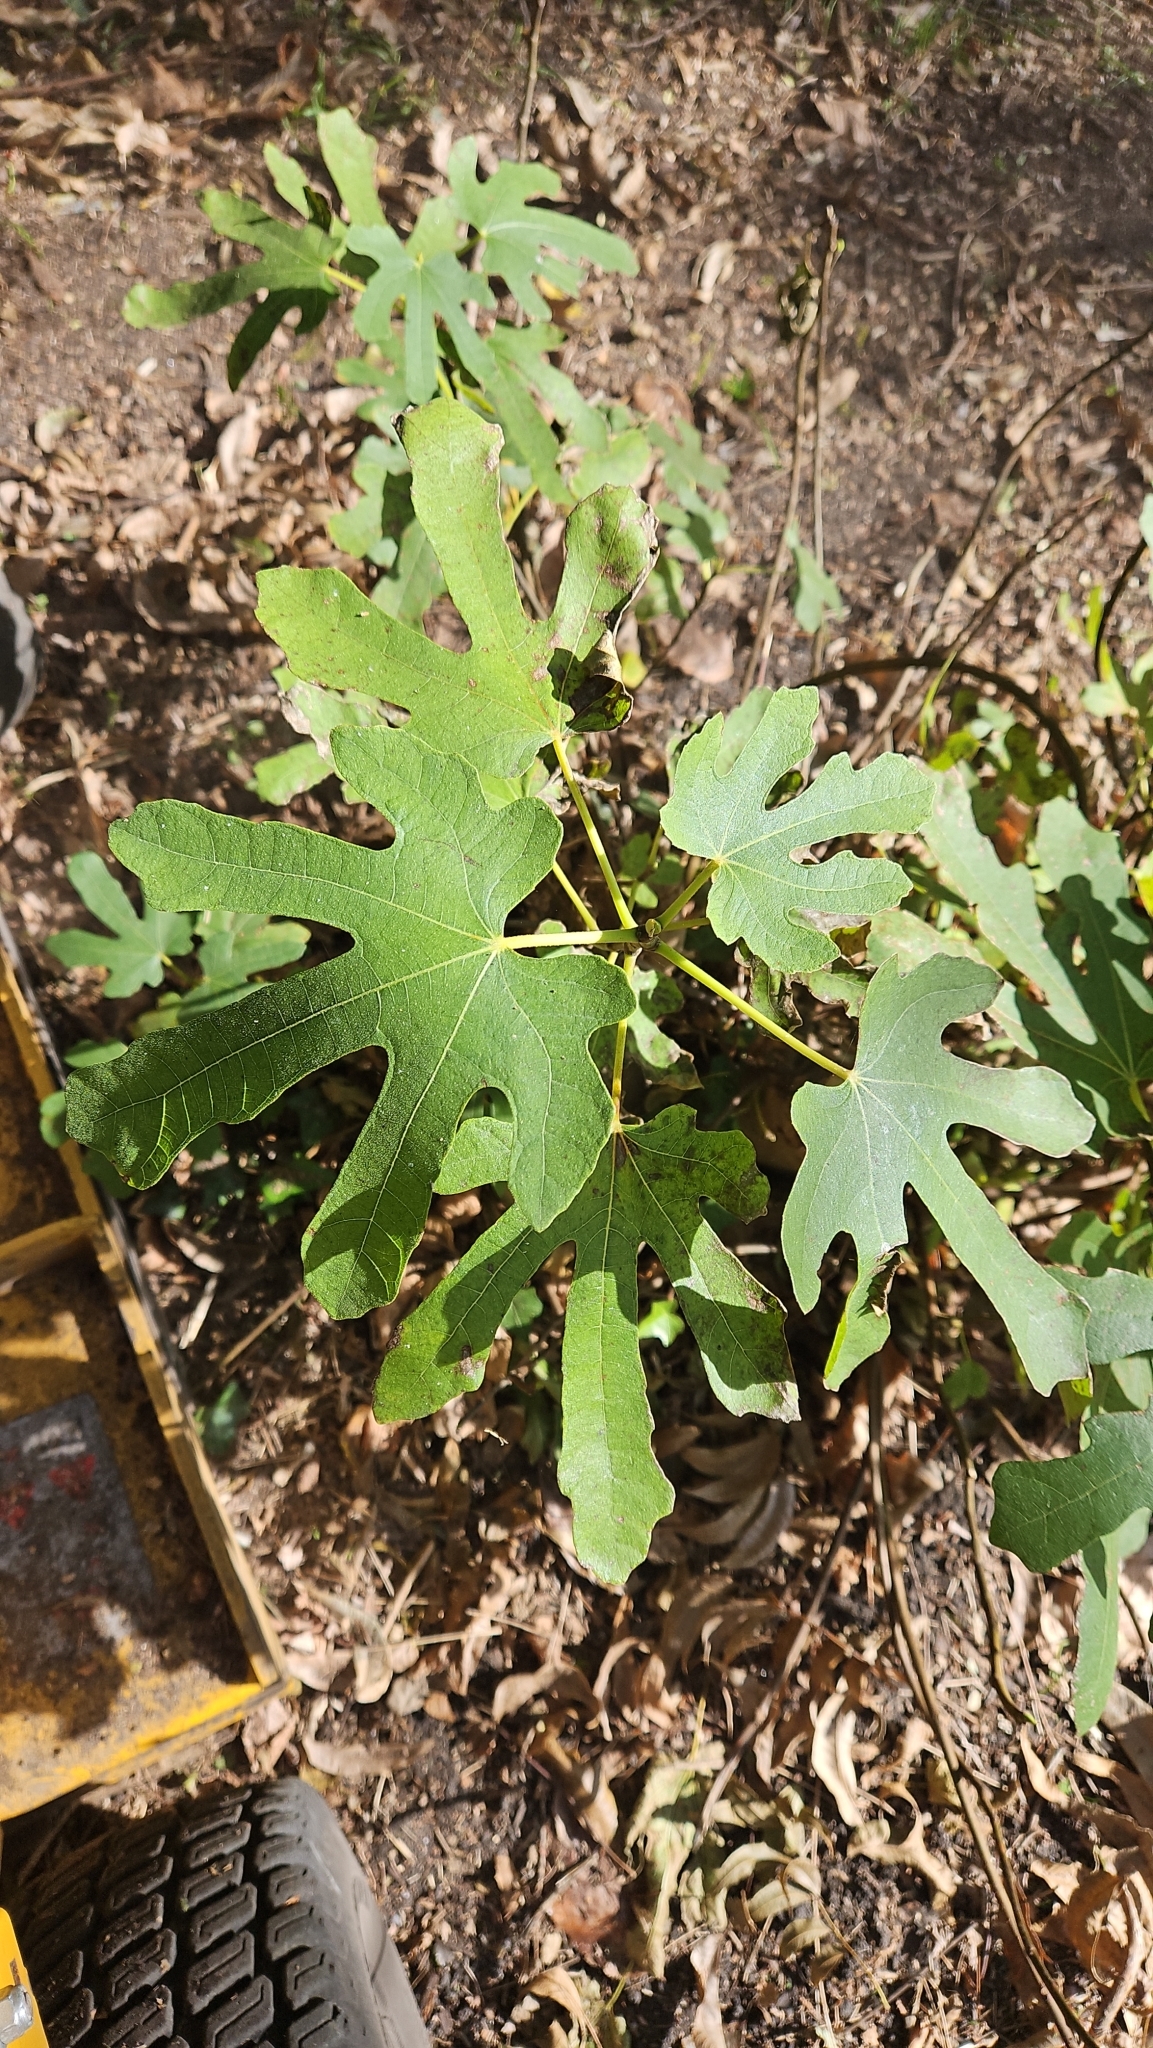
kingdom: Plantae
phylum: Tracheophyta
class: Magnoliopsida
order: Rosales
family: Moraceae
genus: Ficus
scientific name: Ficus carica
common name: Fig
